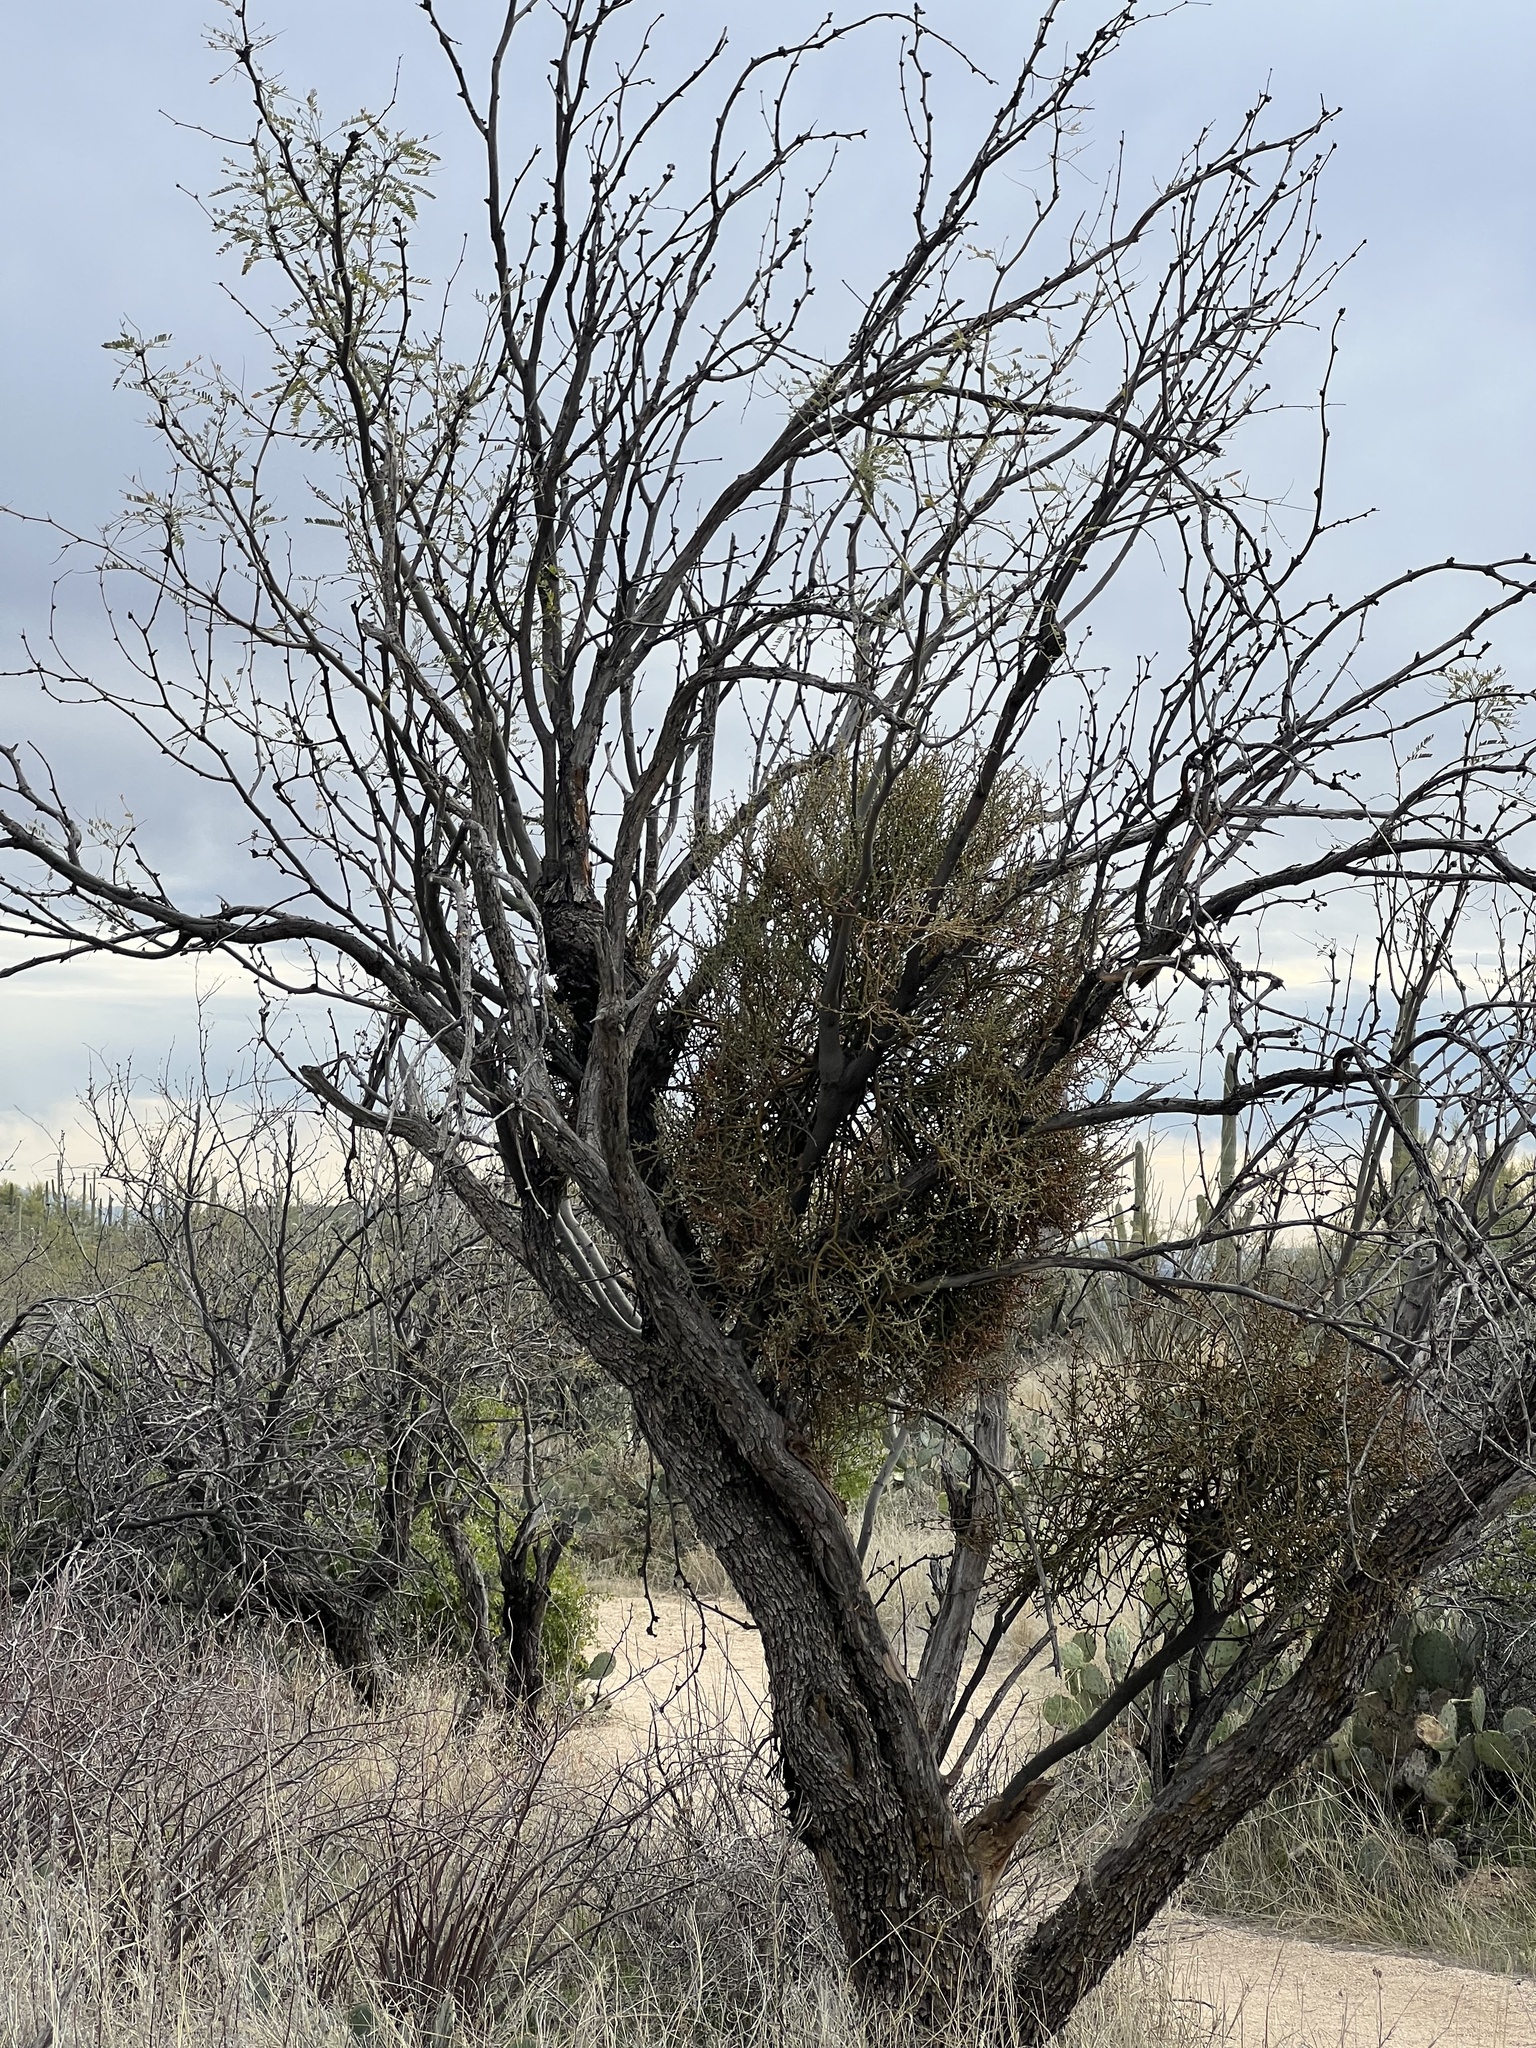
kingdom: Plantae
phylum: Tracheophyta
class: Magnoliopsida
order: Santalales
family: Viscaceae
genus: Phoradendron
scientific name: Phoradendron californicum
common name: Acacia mistletoe
